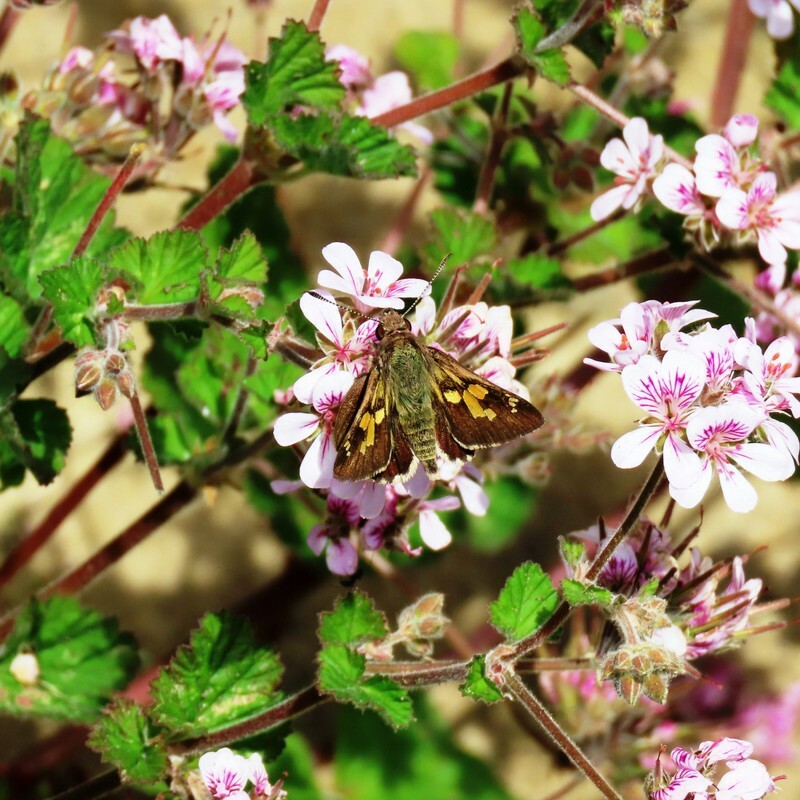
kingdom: Animalia
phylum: Arthropoda
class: Insecta
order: Lepidoptera
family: Hesperiidae
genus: Trapezites
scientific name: Trapezites phigalioides
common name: Montane ochre
